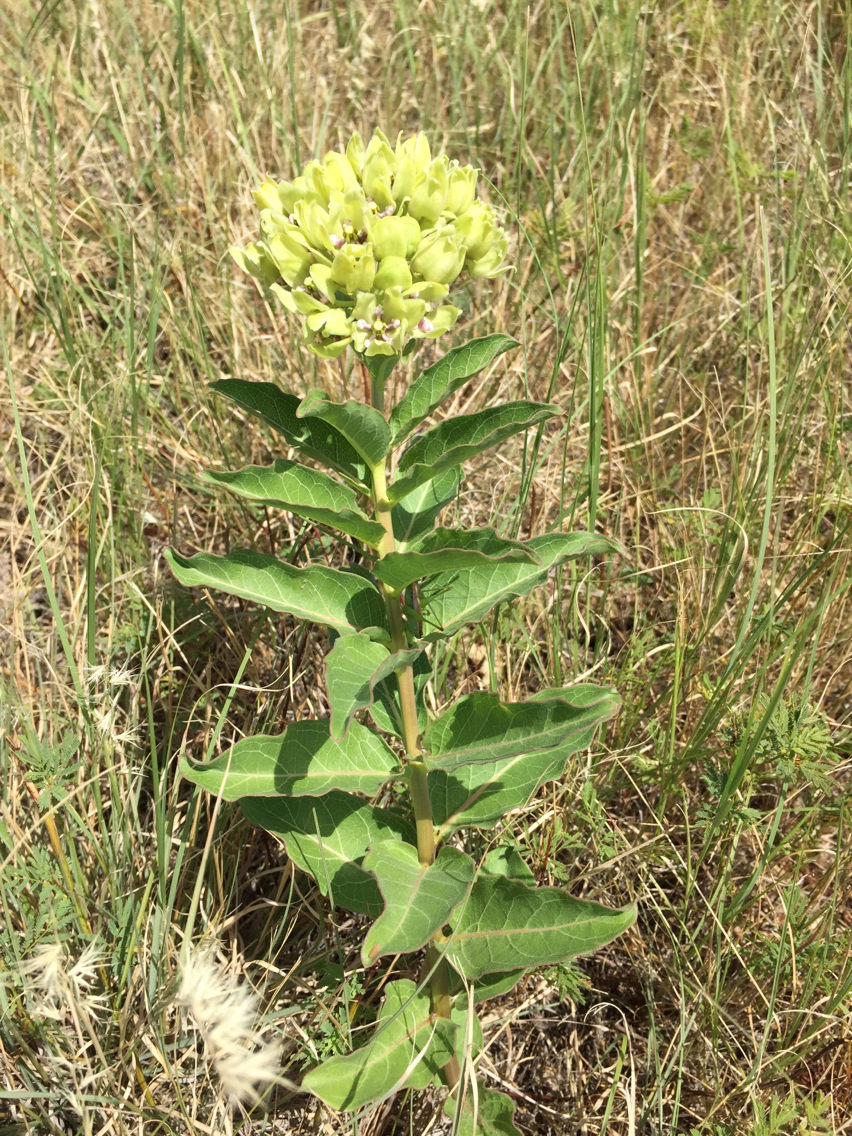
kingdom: Plantae
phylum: Tracheophyta
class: Magnoliopsida
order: Gentianales
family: Apocynaceae
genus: Asclepias
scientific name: Asclepias viridis
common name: Antelope-horns
